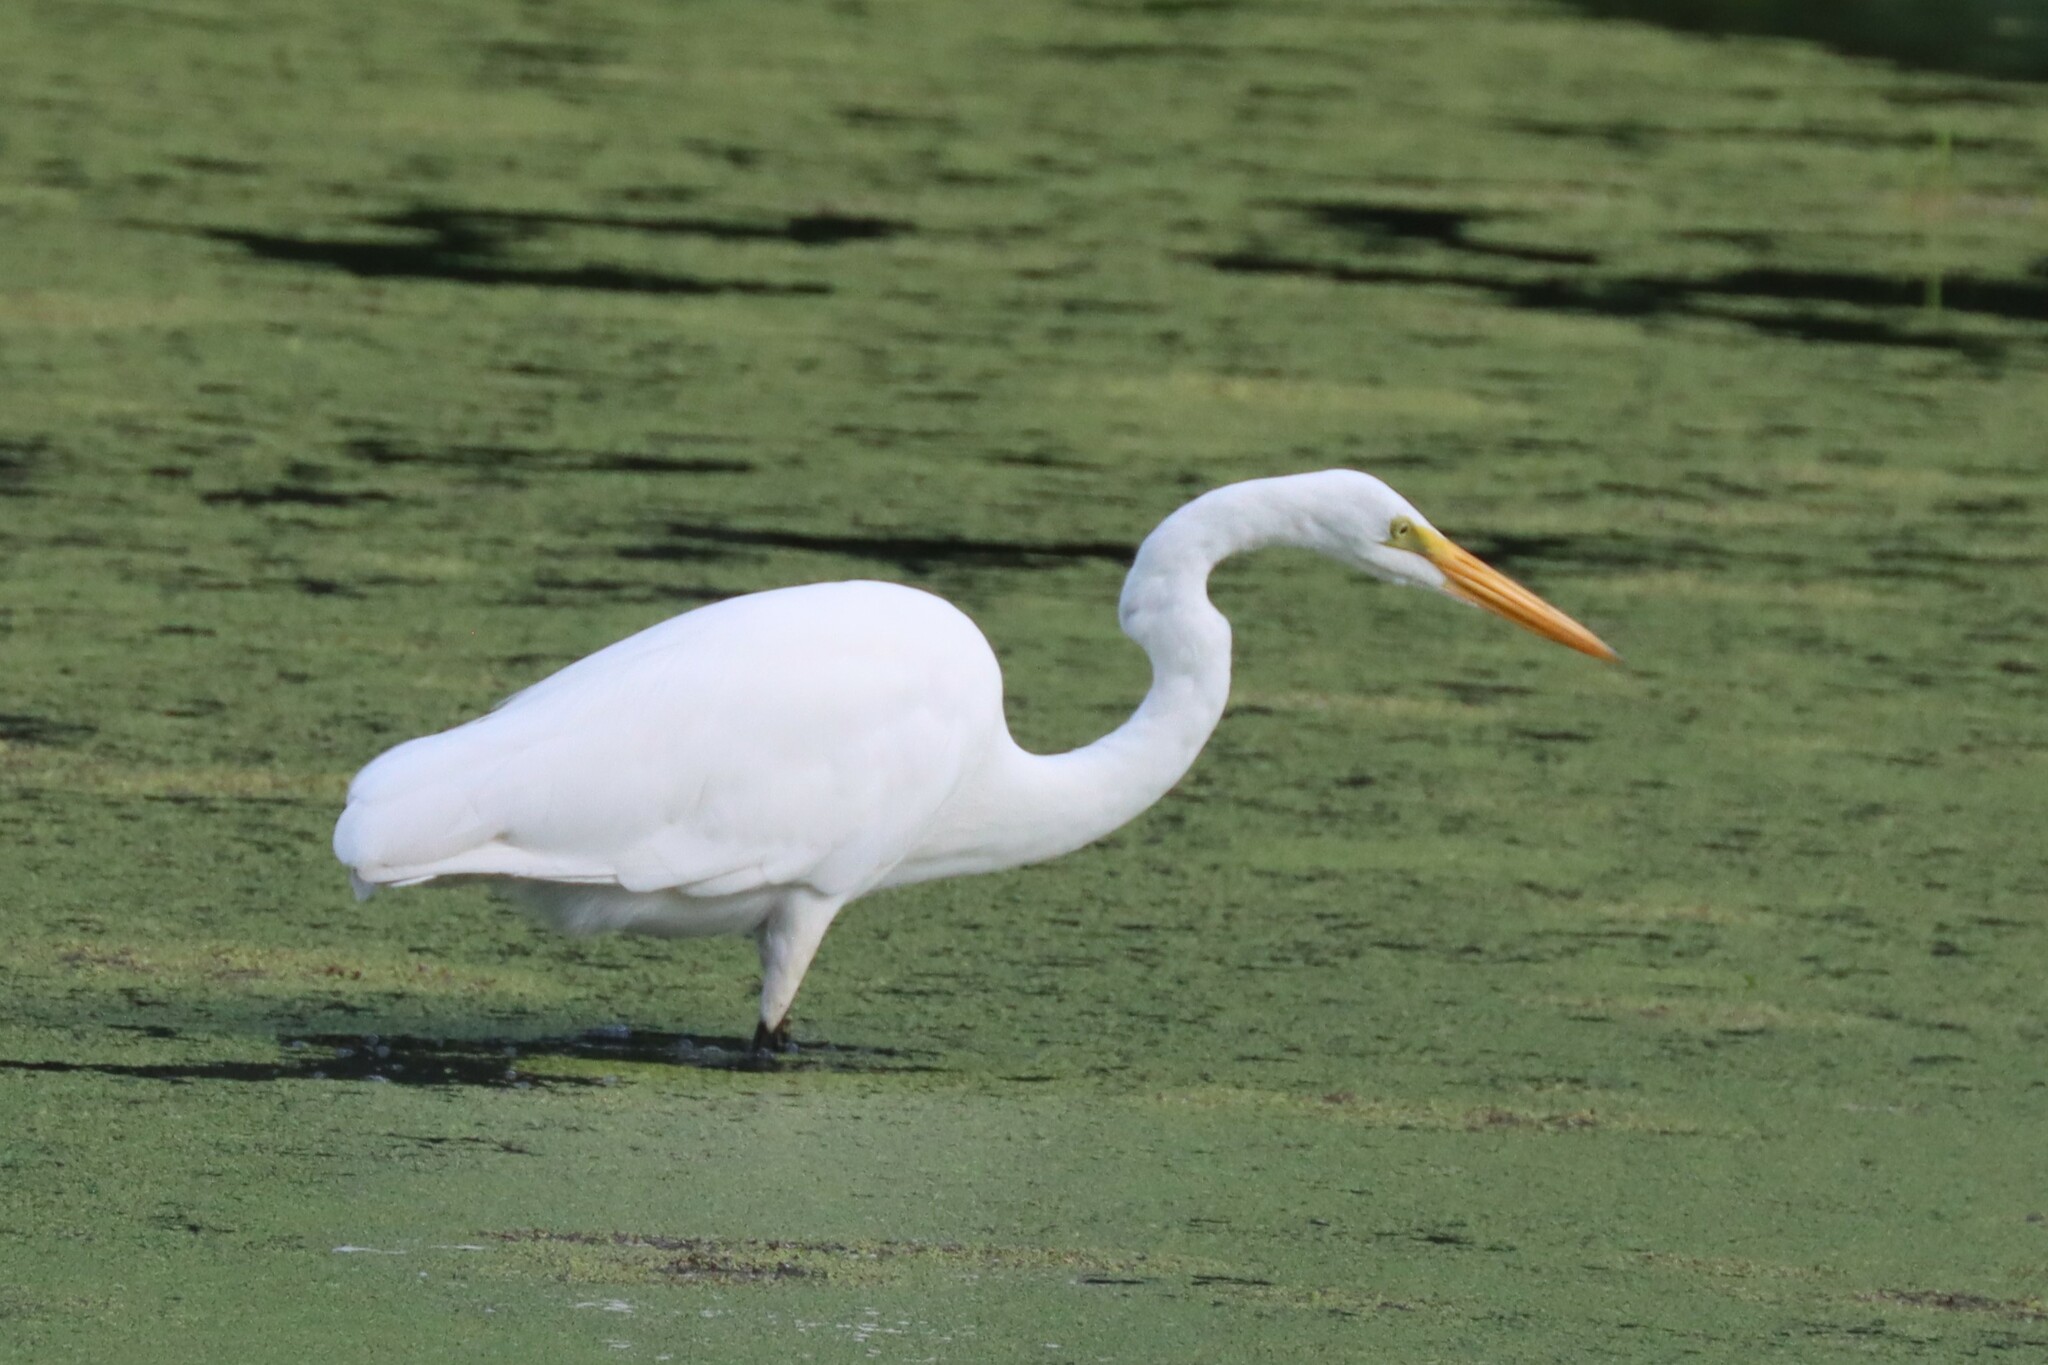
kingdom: Animalia
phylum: Chordata
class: Aves
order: Pelecaniformes
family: Ardeidae
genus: Ardea
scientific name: Ardea alba
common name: Great egret
